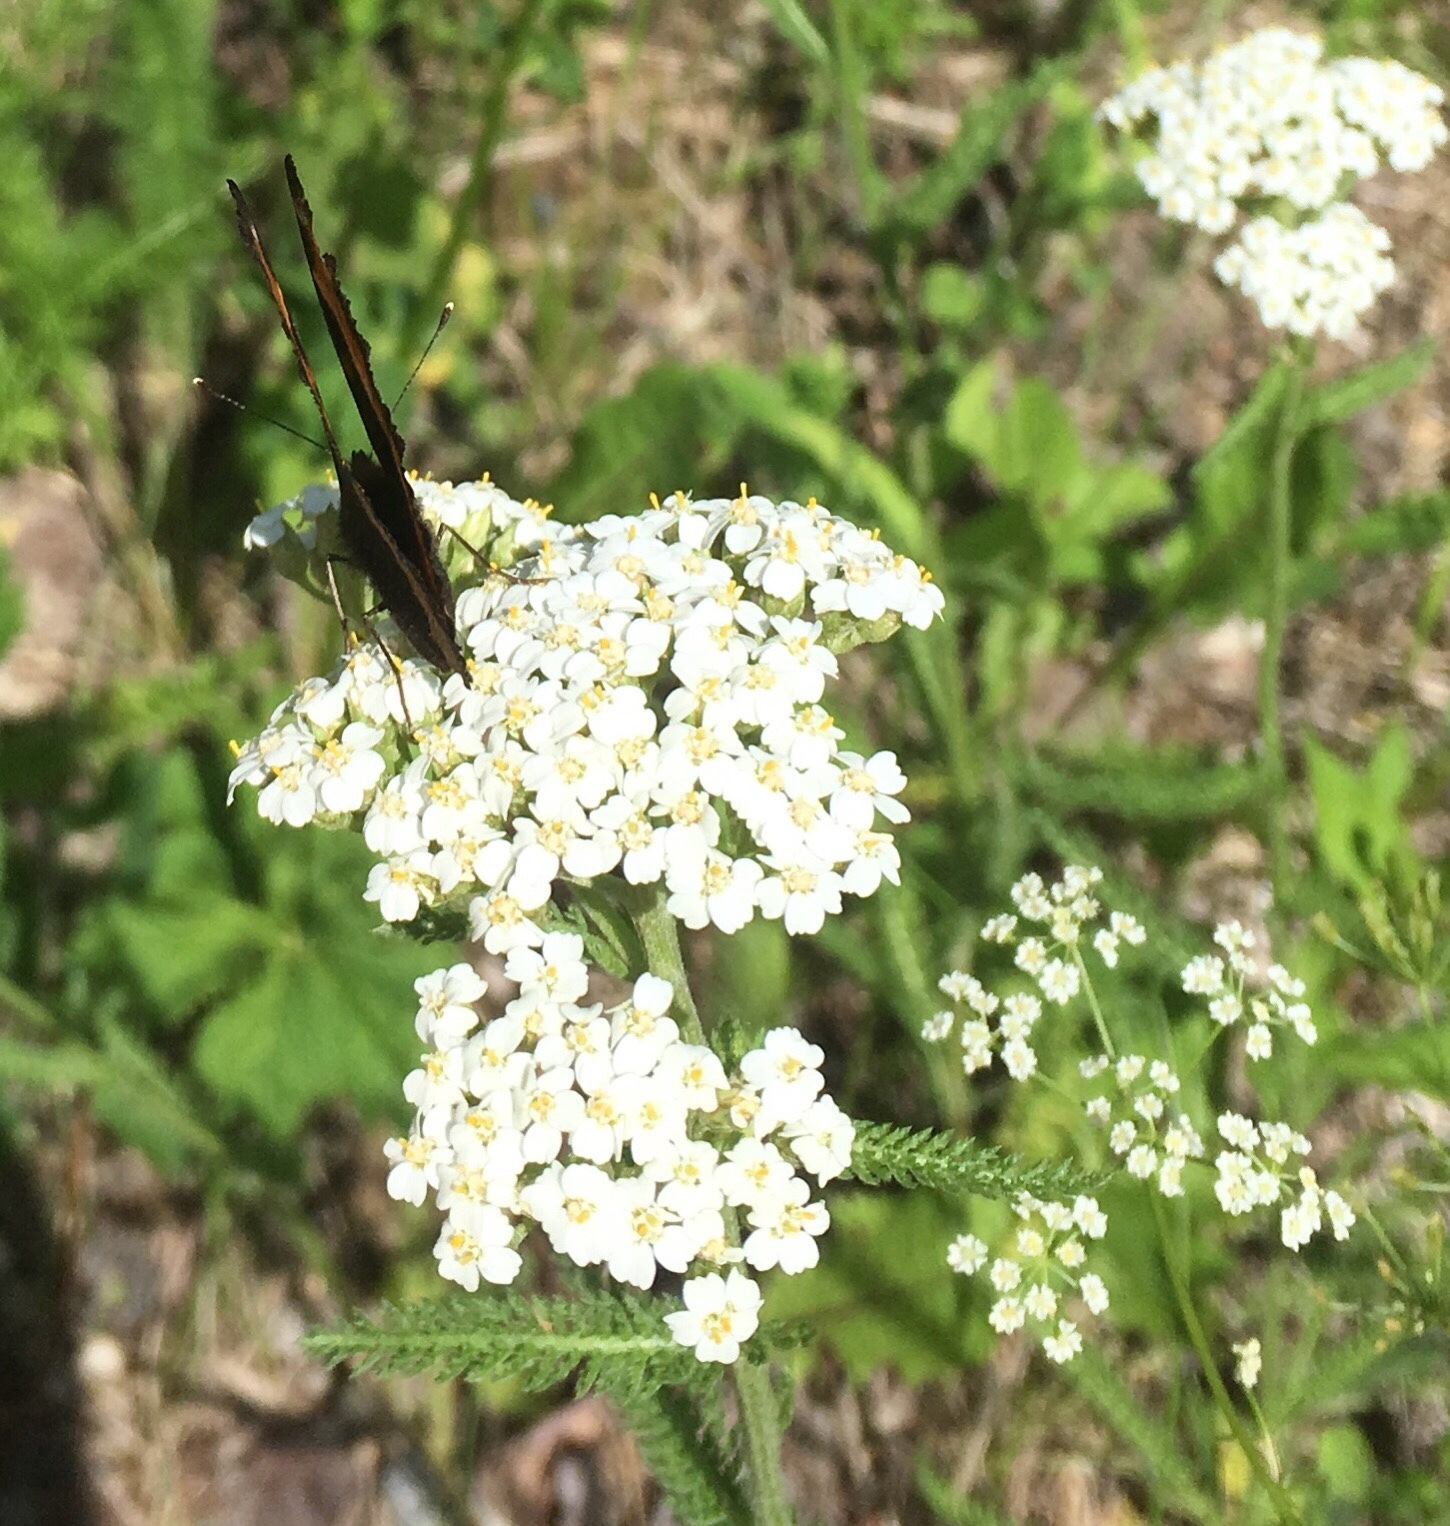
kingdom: Plantae
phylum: Tracheophyta
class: Magnoliopsida
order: Asterales
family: Asteraceae
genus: Achillea
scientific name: Achillea millefolium
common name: Yarrow
